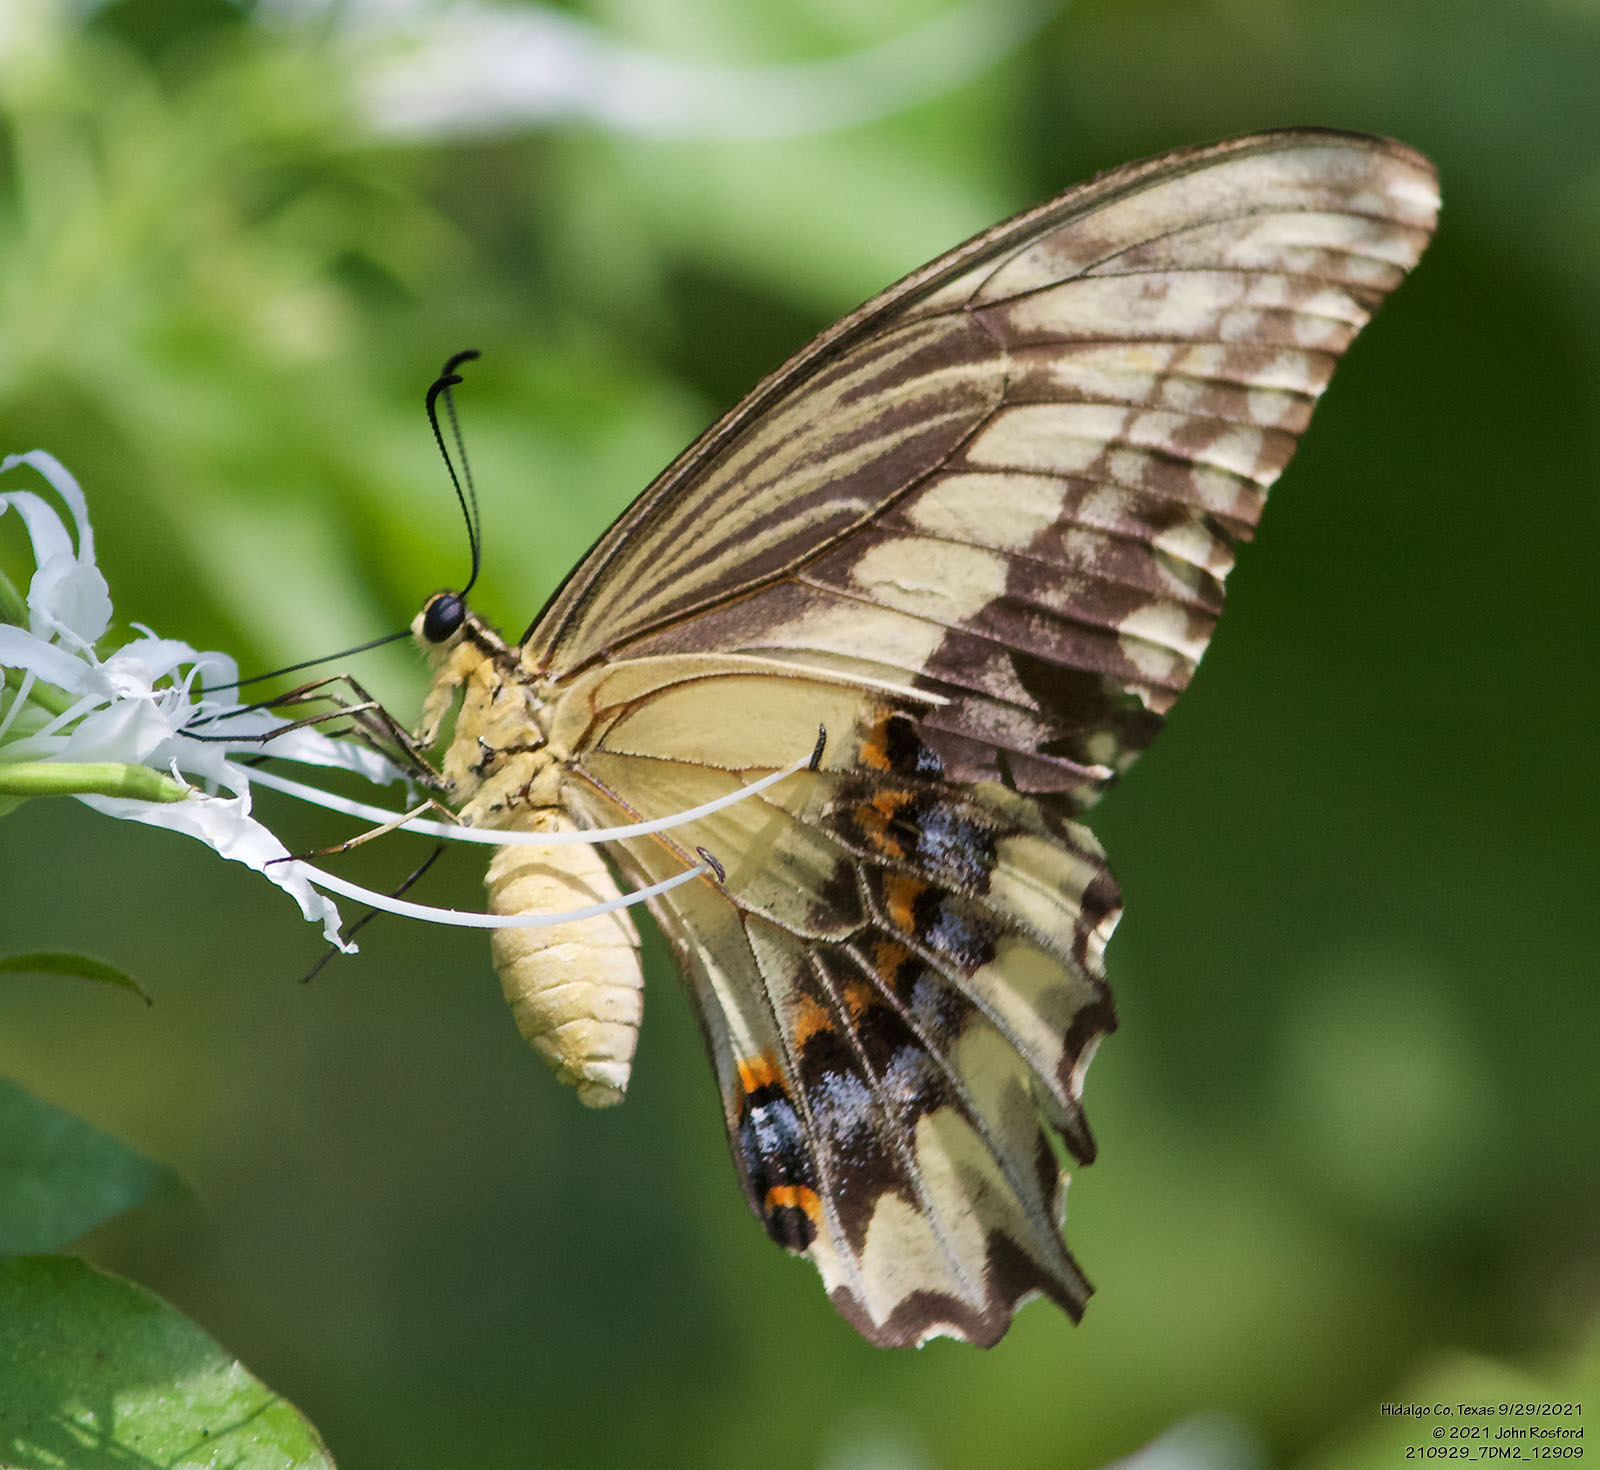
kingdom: Animalia
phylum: Arthropoda
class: Insecta
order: Lepidoptera
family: Papilionidae
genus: Papilio
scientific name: Papilio ornythion
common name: Ornythion swallowtail
